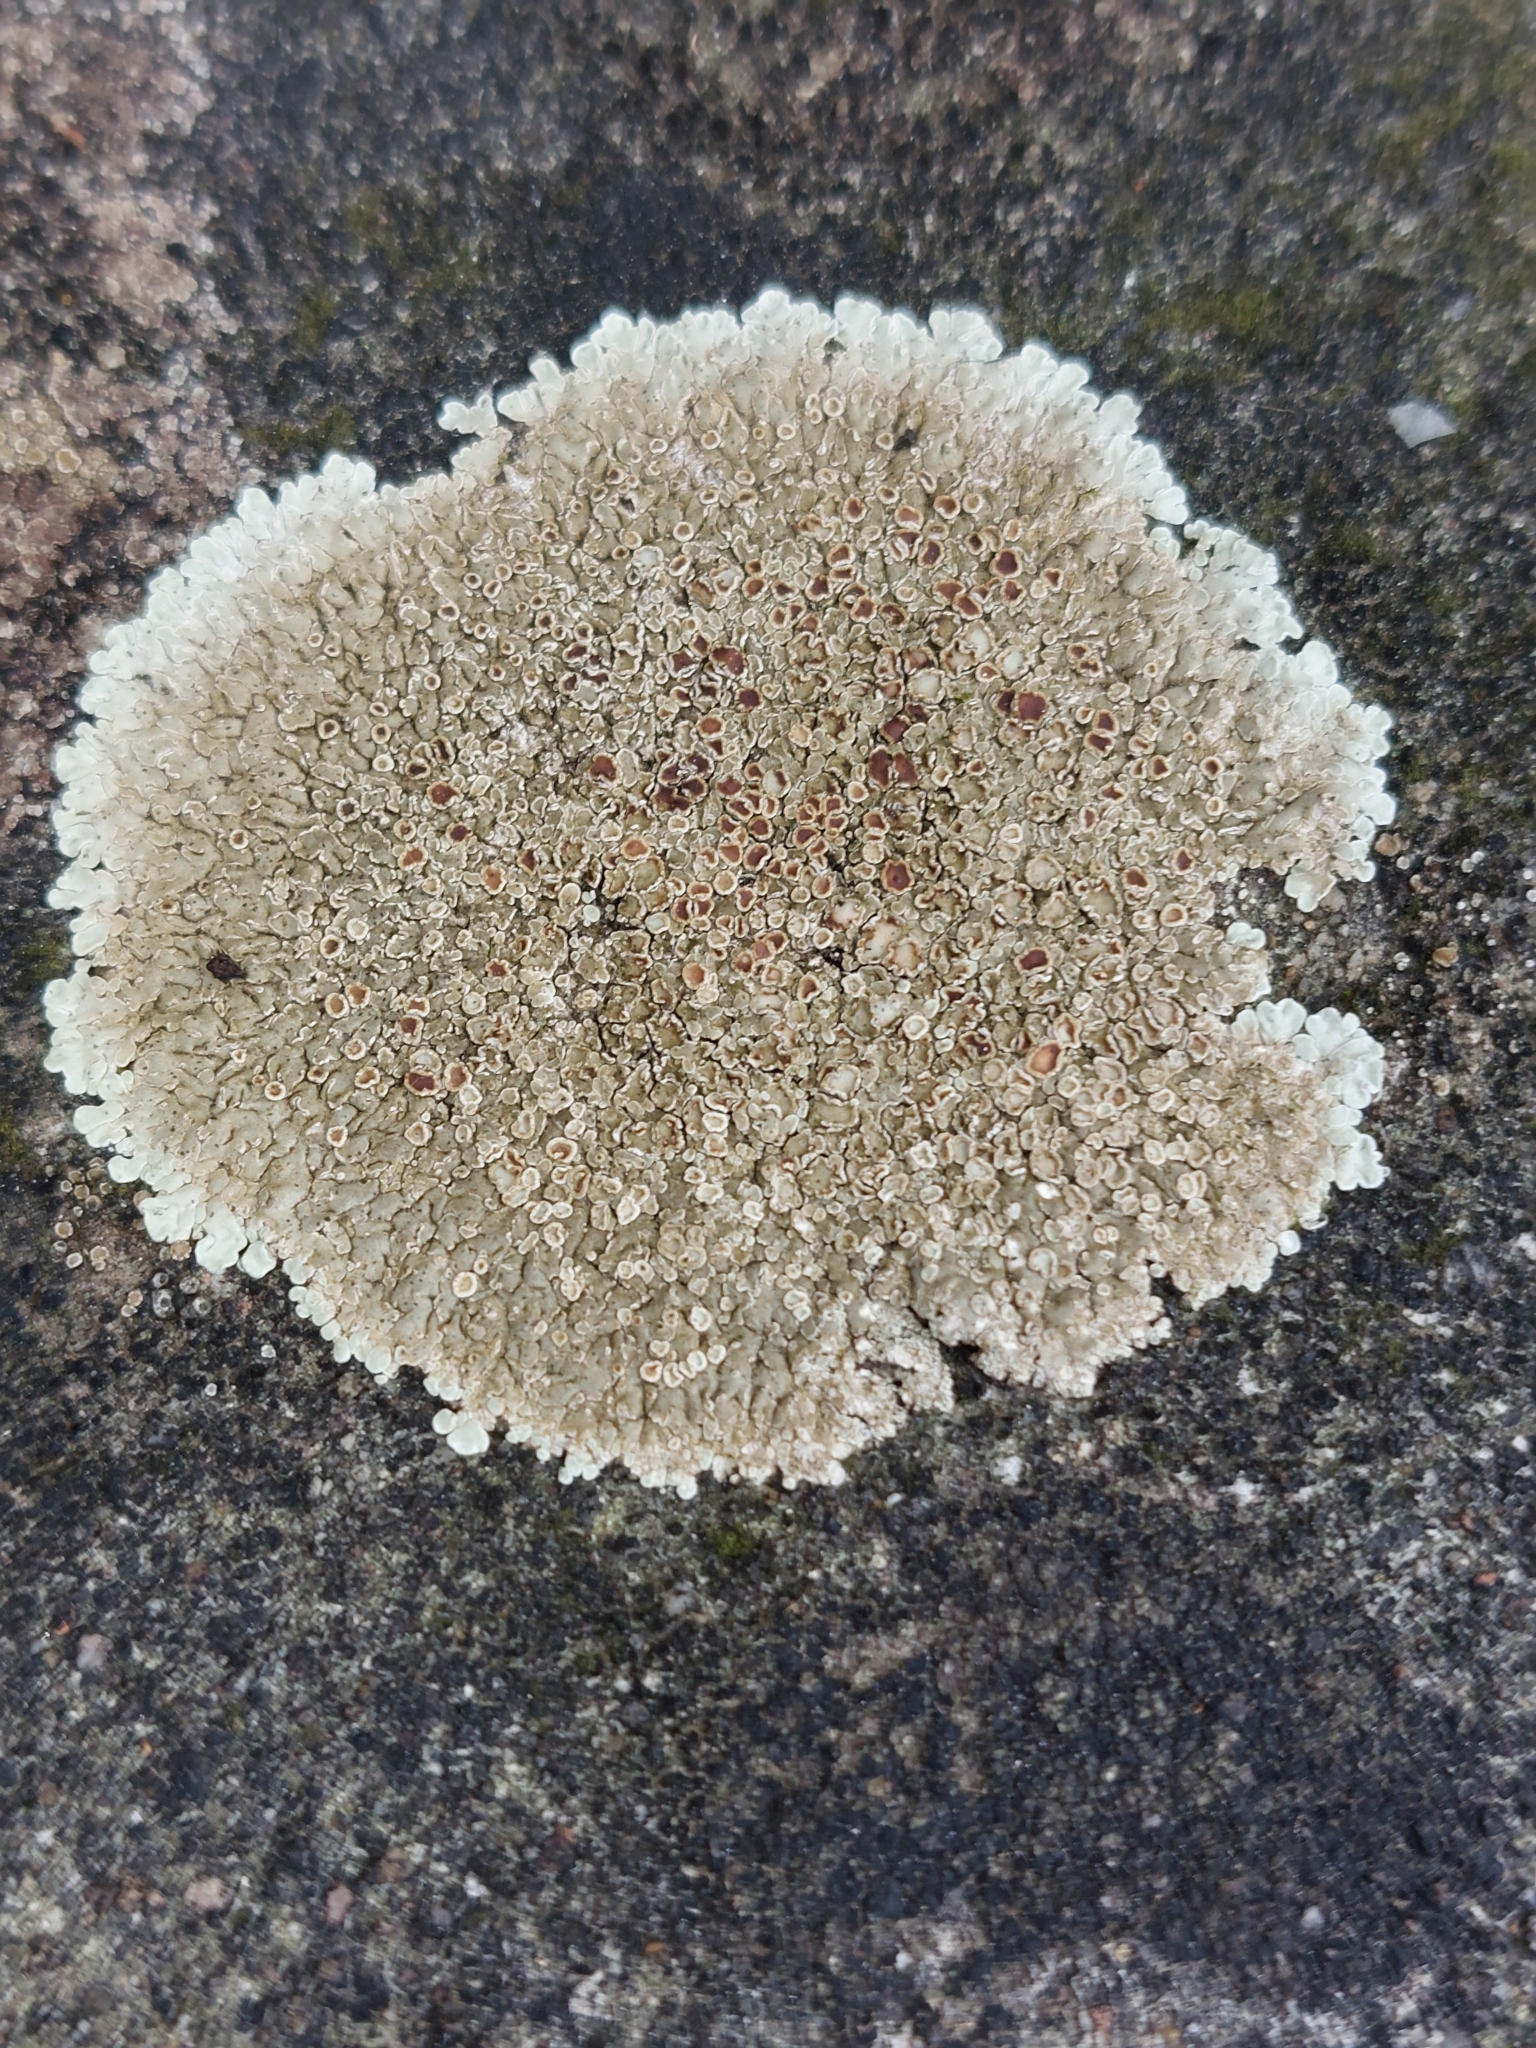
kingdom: Fungi
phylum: Ascomycota
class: Lecanoromycetes
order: Lecanorales
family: Lecanoraceae
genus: Protoparmeliopsis
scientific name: Protoparmeliopsis muralis
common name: Stonewall rim lichen
